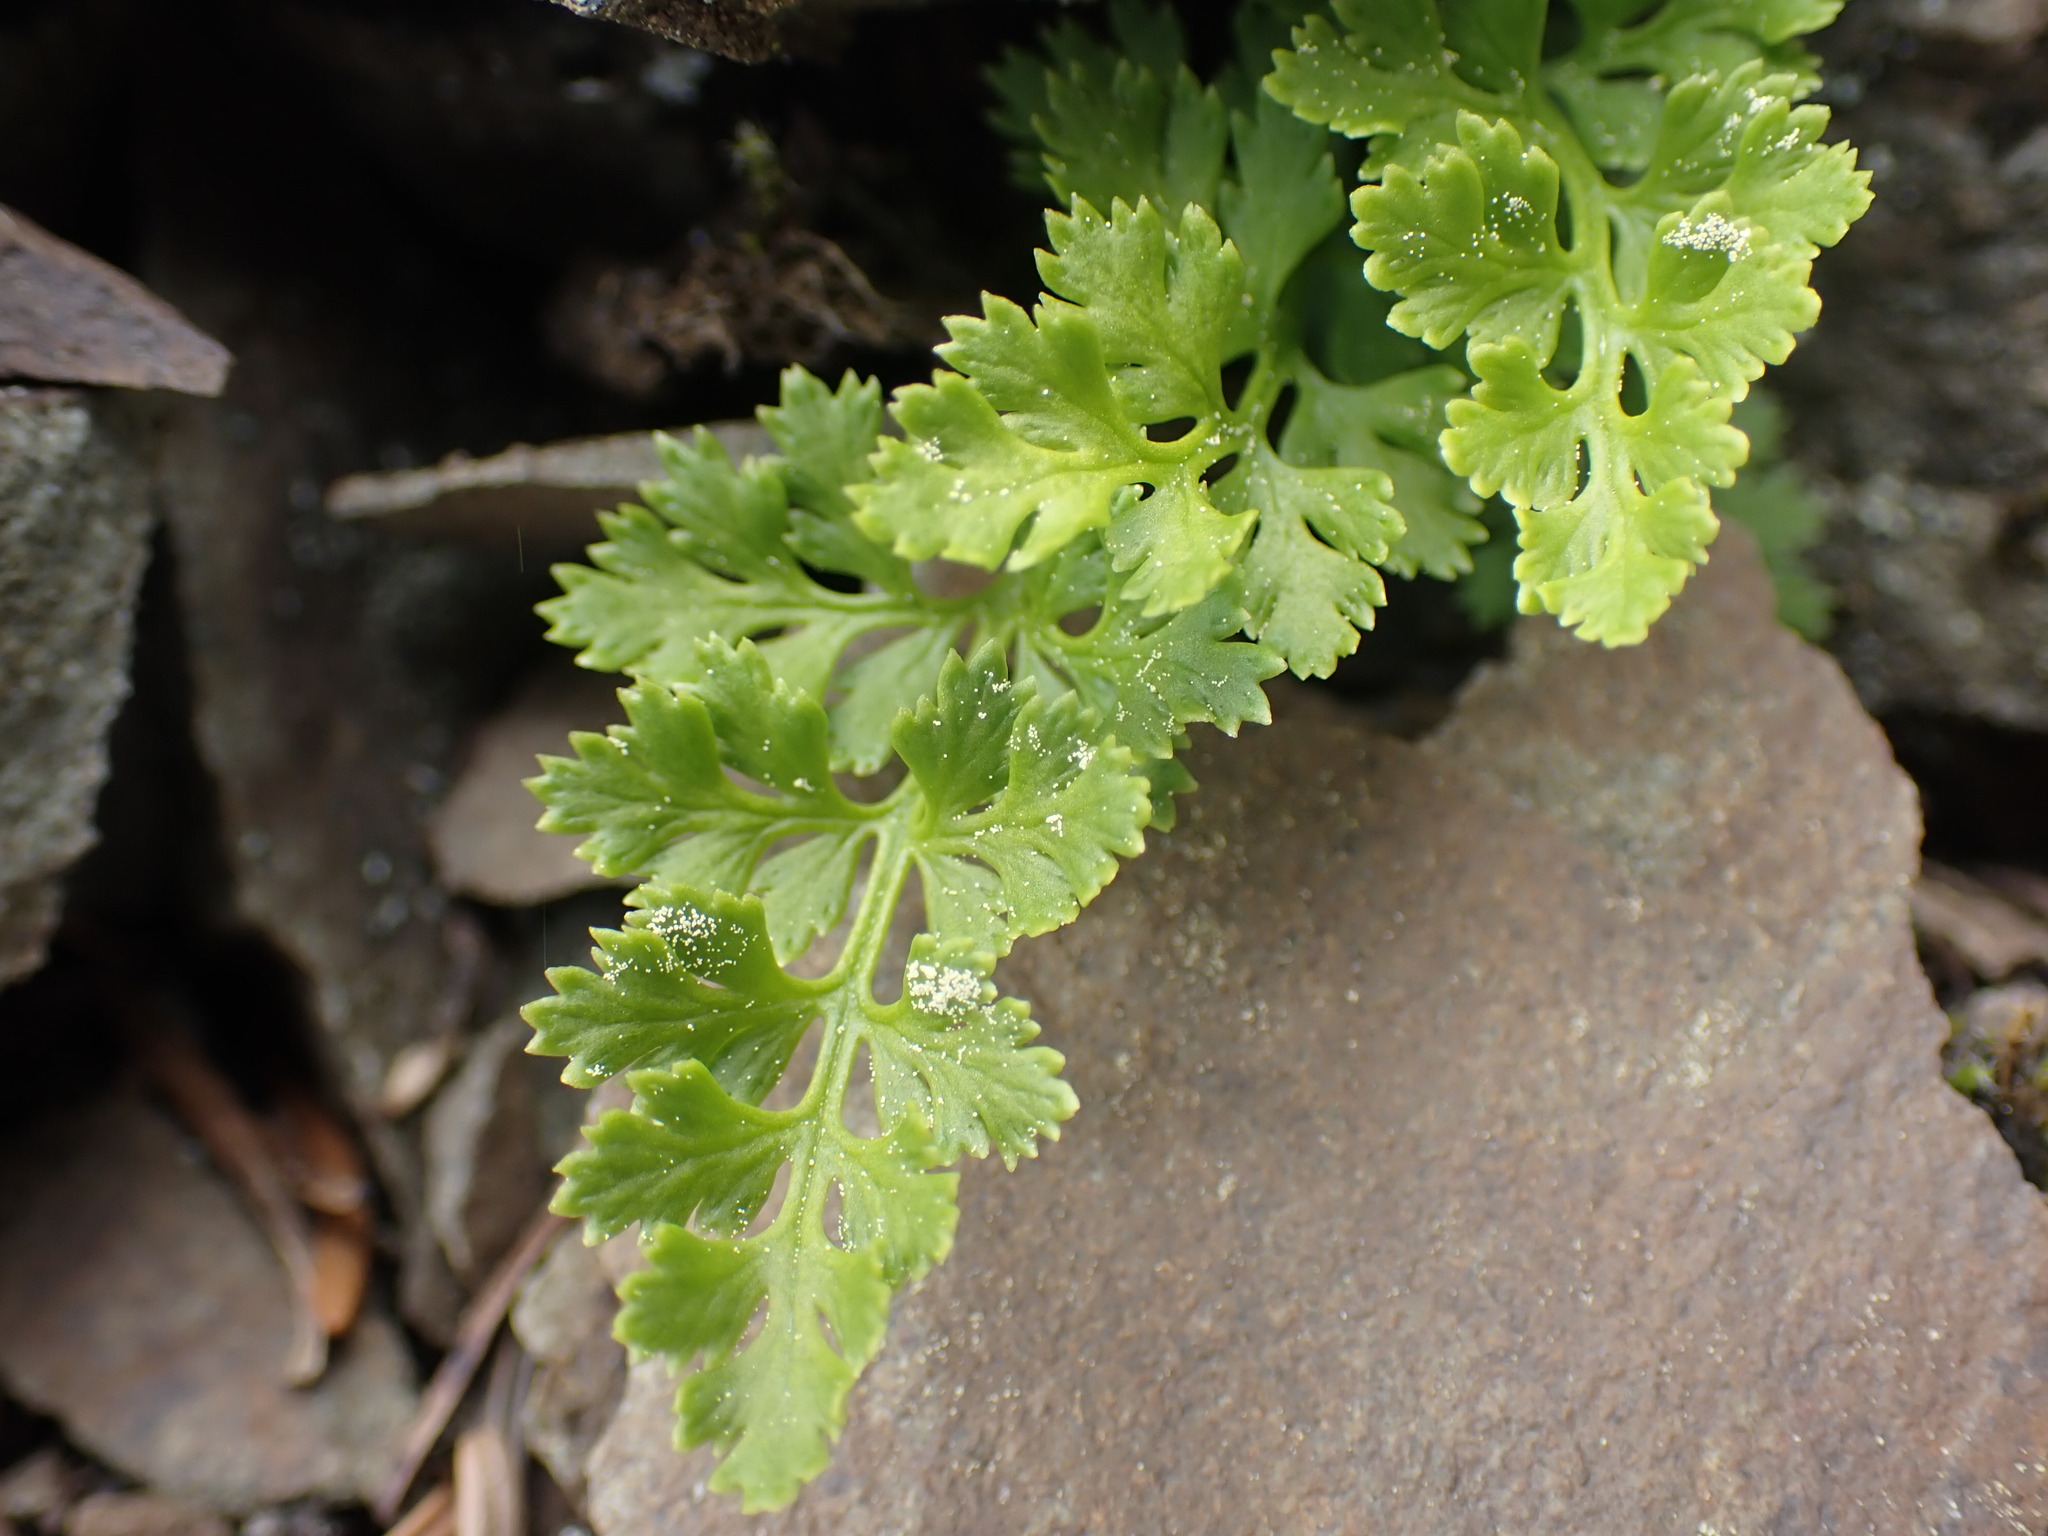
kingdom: Plantae
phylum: Tracheophyta
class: Polypodiopsida
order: Polypodiales
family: Pteridaceae
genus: Cryptogramma
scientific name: Cryptogramma acrostichoides
